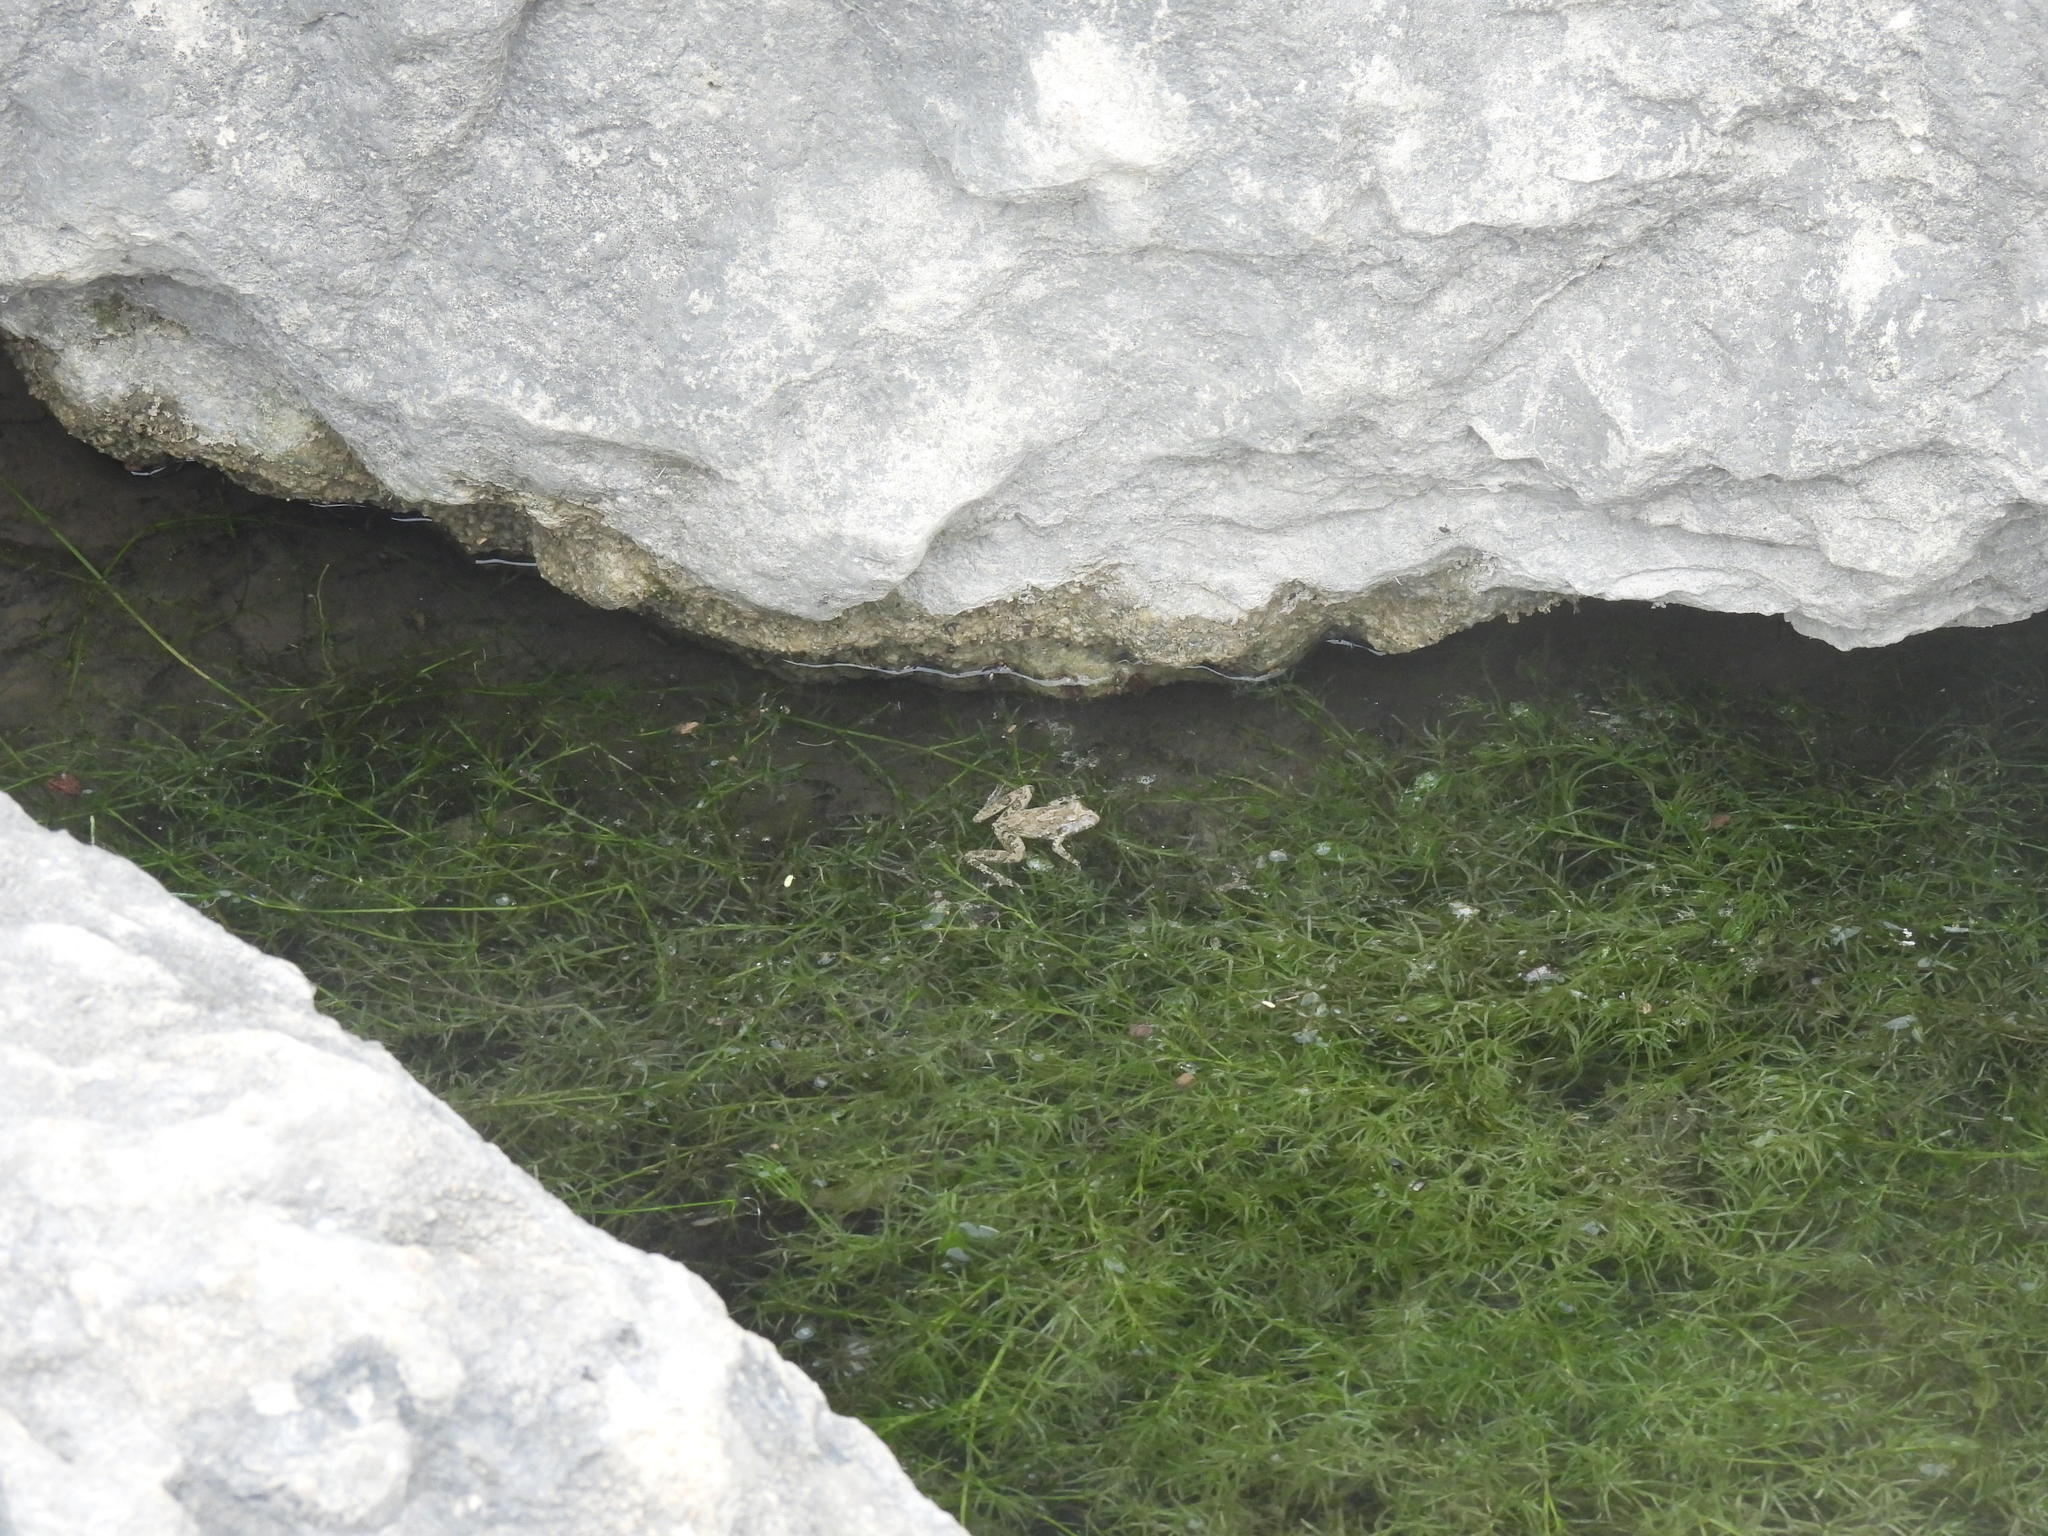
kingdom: Animalia
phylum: Chordata
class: Amphibia
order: Anura
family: Hylidae
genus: Acris
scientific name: Acris blanchardi
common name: Blanchard's cricket frog
